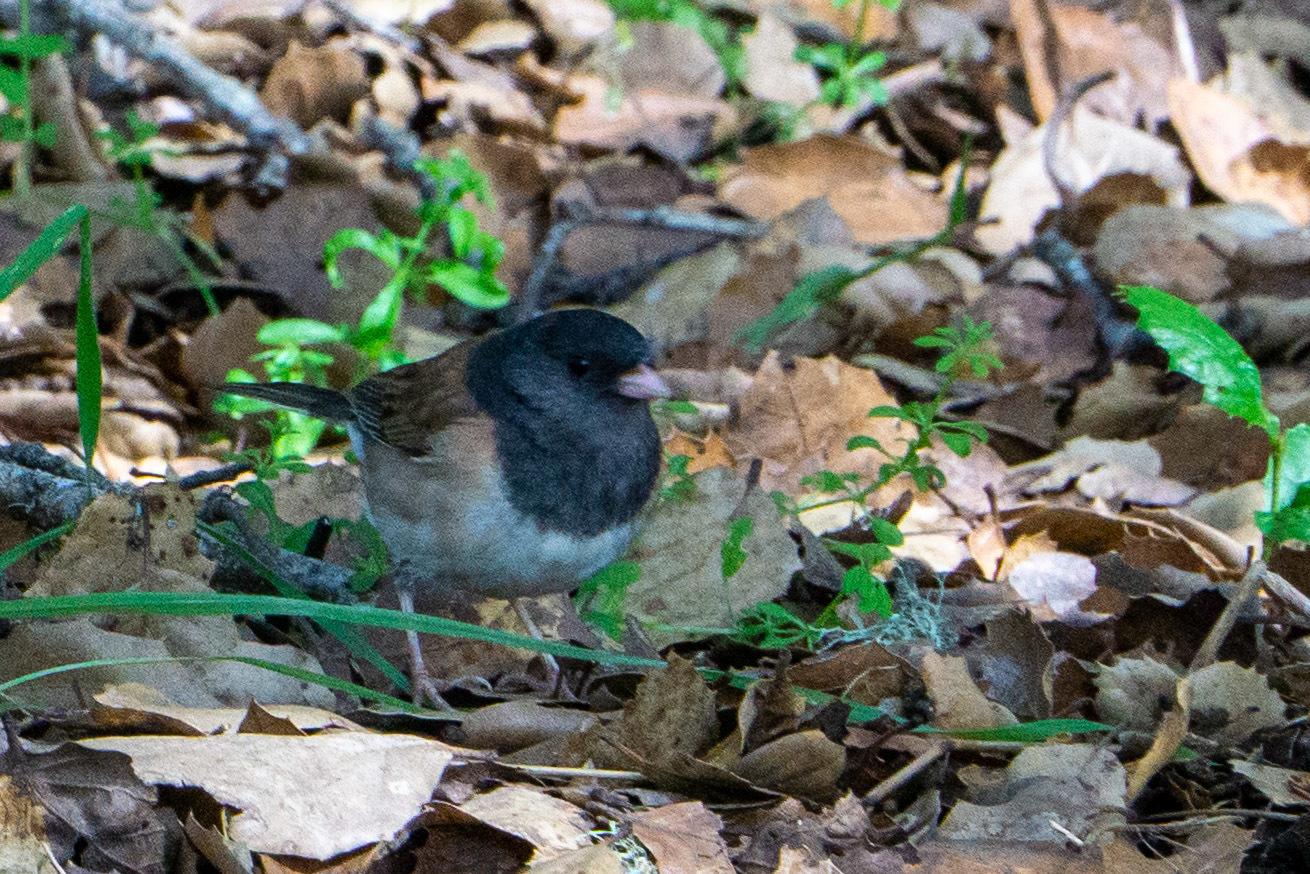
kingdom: Animalia
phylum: Chordata
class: Aves
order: Passeriformes
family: Passerellidae
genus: Junco
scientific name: Junco hyemalis
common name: Dark-eyed junco
